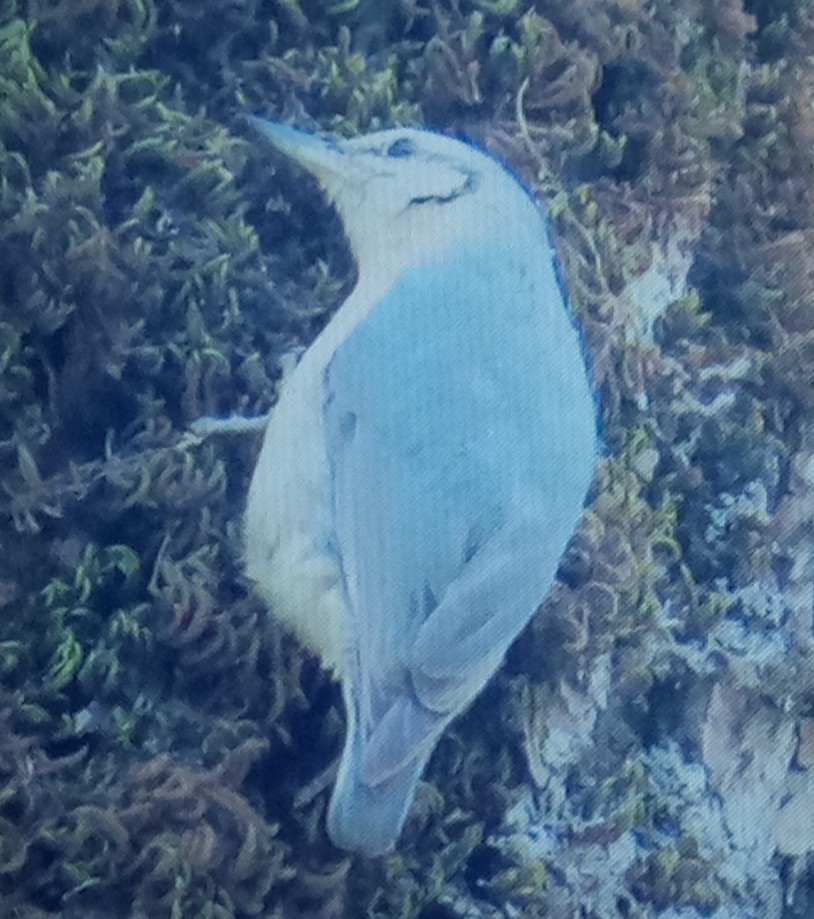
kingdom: Animalia
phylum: Chordata
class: Aves
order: Passeriformes
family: Sittidae
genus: Sitta
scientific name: Sitta ledanti
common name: Algerian nuthatch
